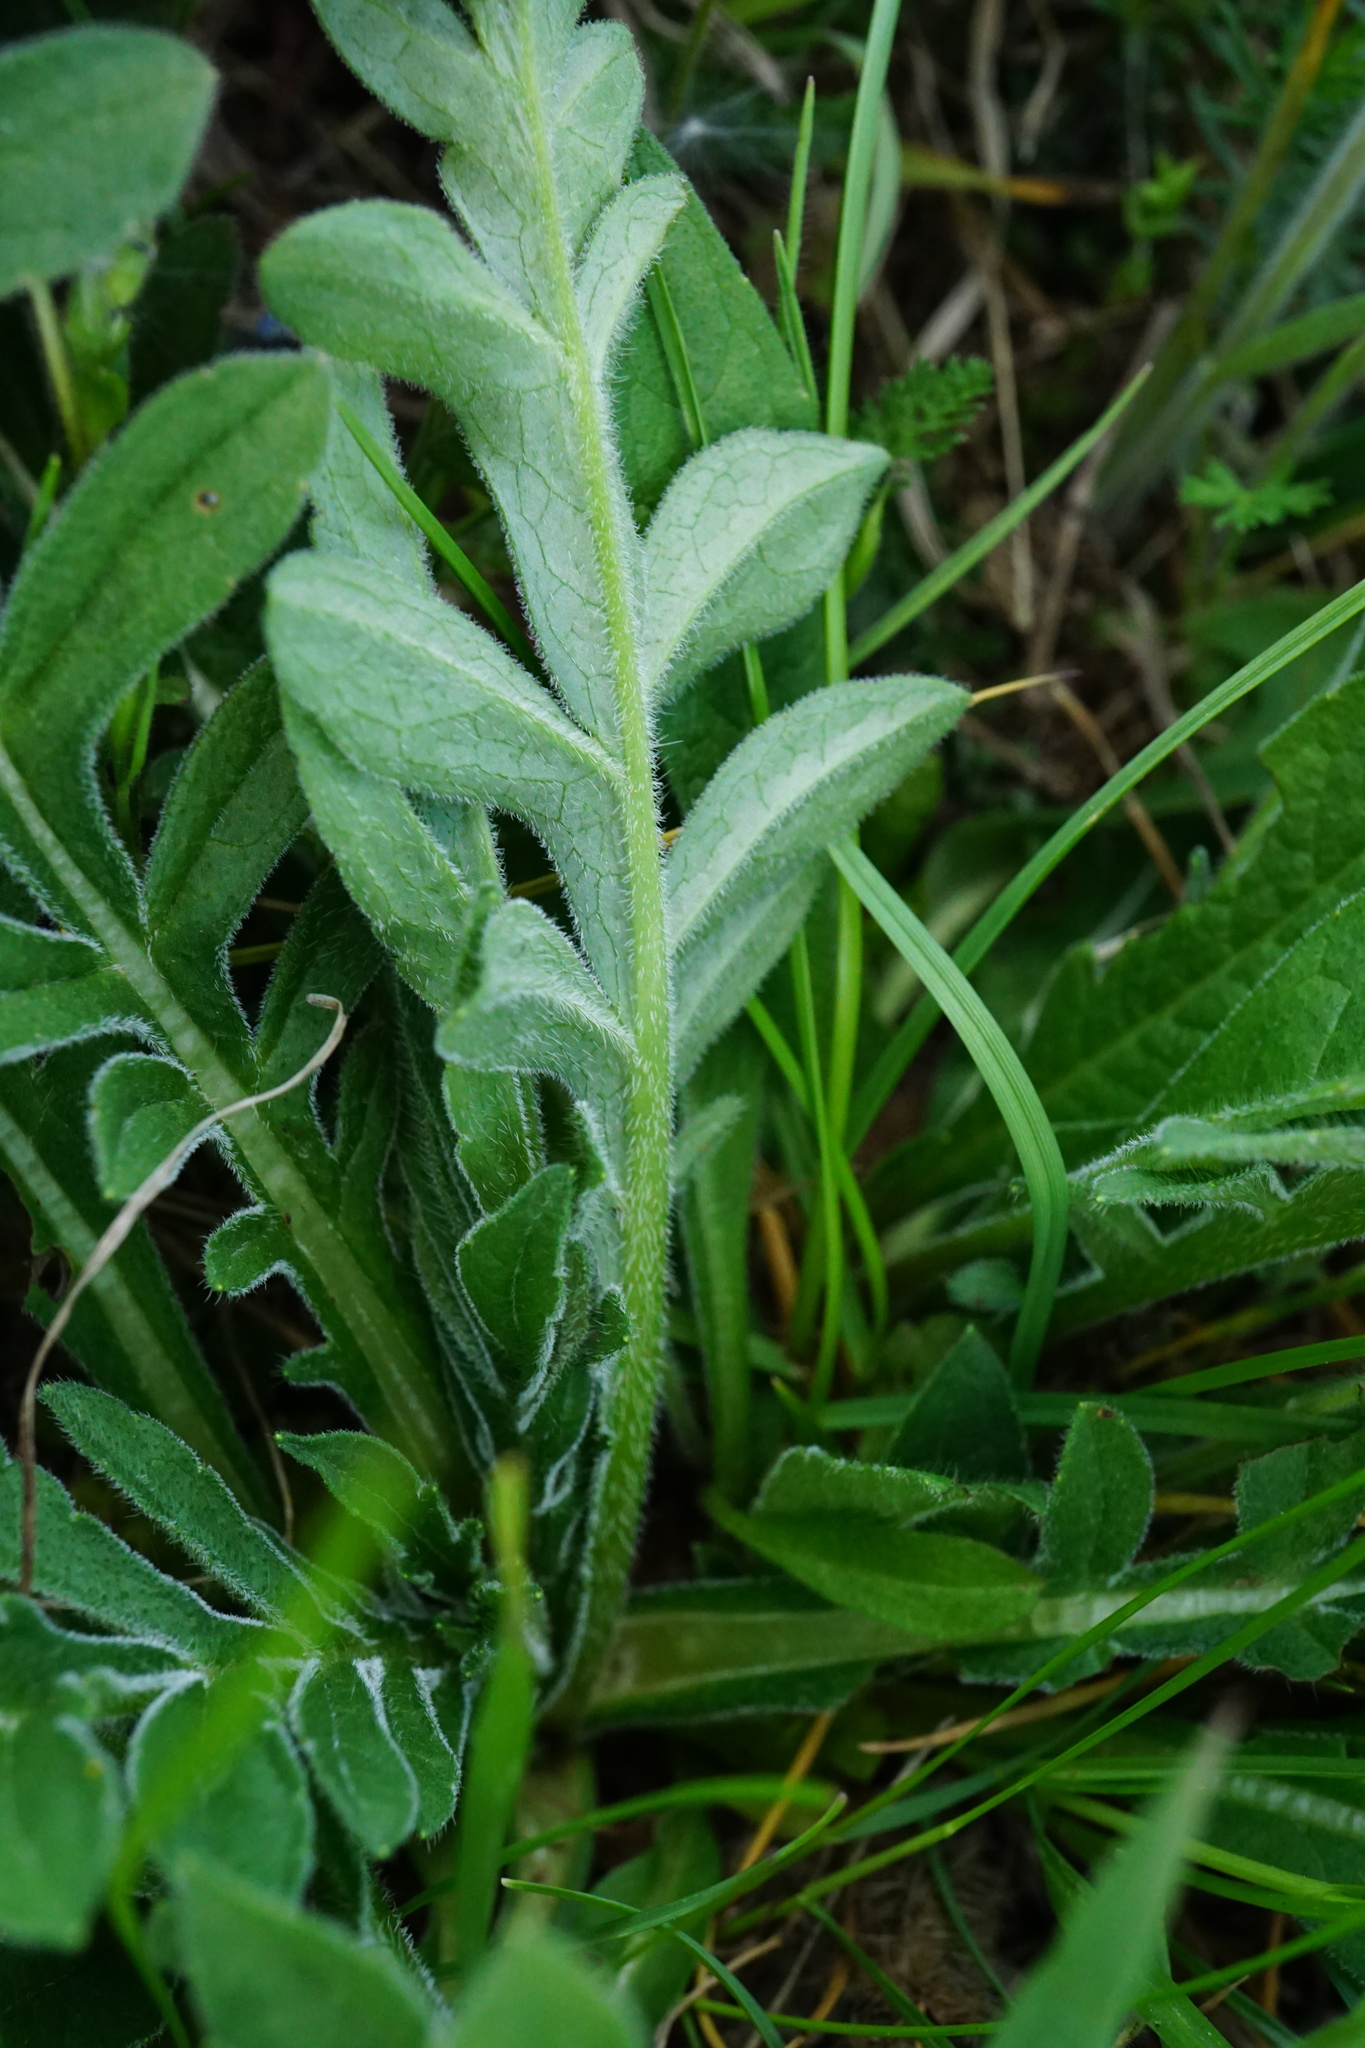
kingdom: Plantae
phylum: Tracheophyta
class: Magnoliopsida
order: Dipsacales
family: Caprifoliaceae
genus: Knautia
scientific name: Knautia arvensis
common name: Field scabiosa
